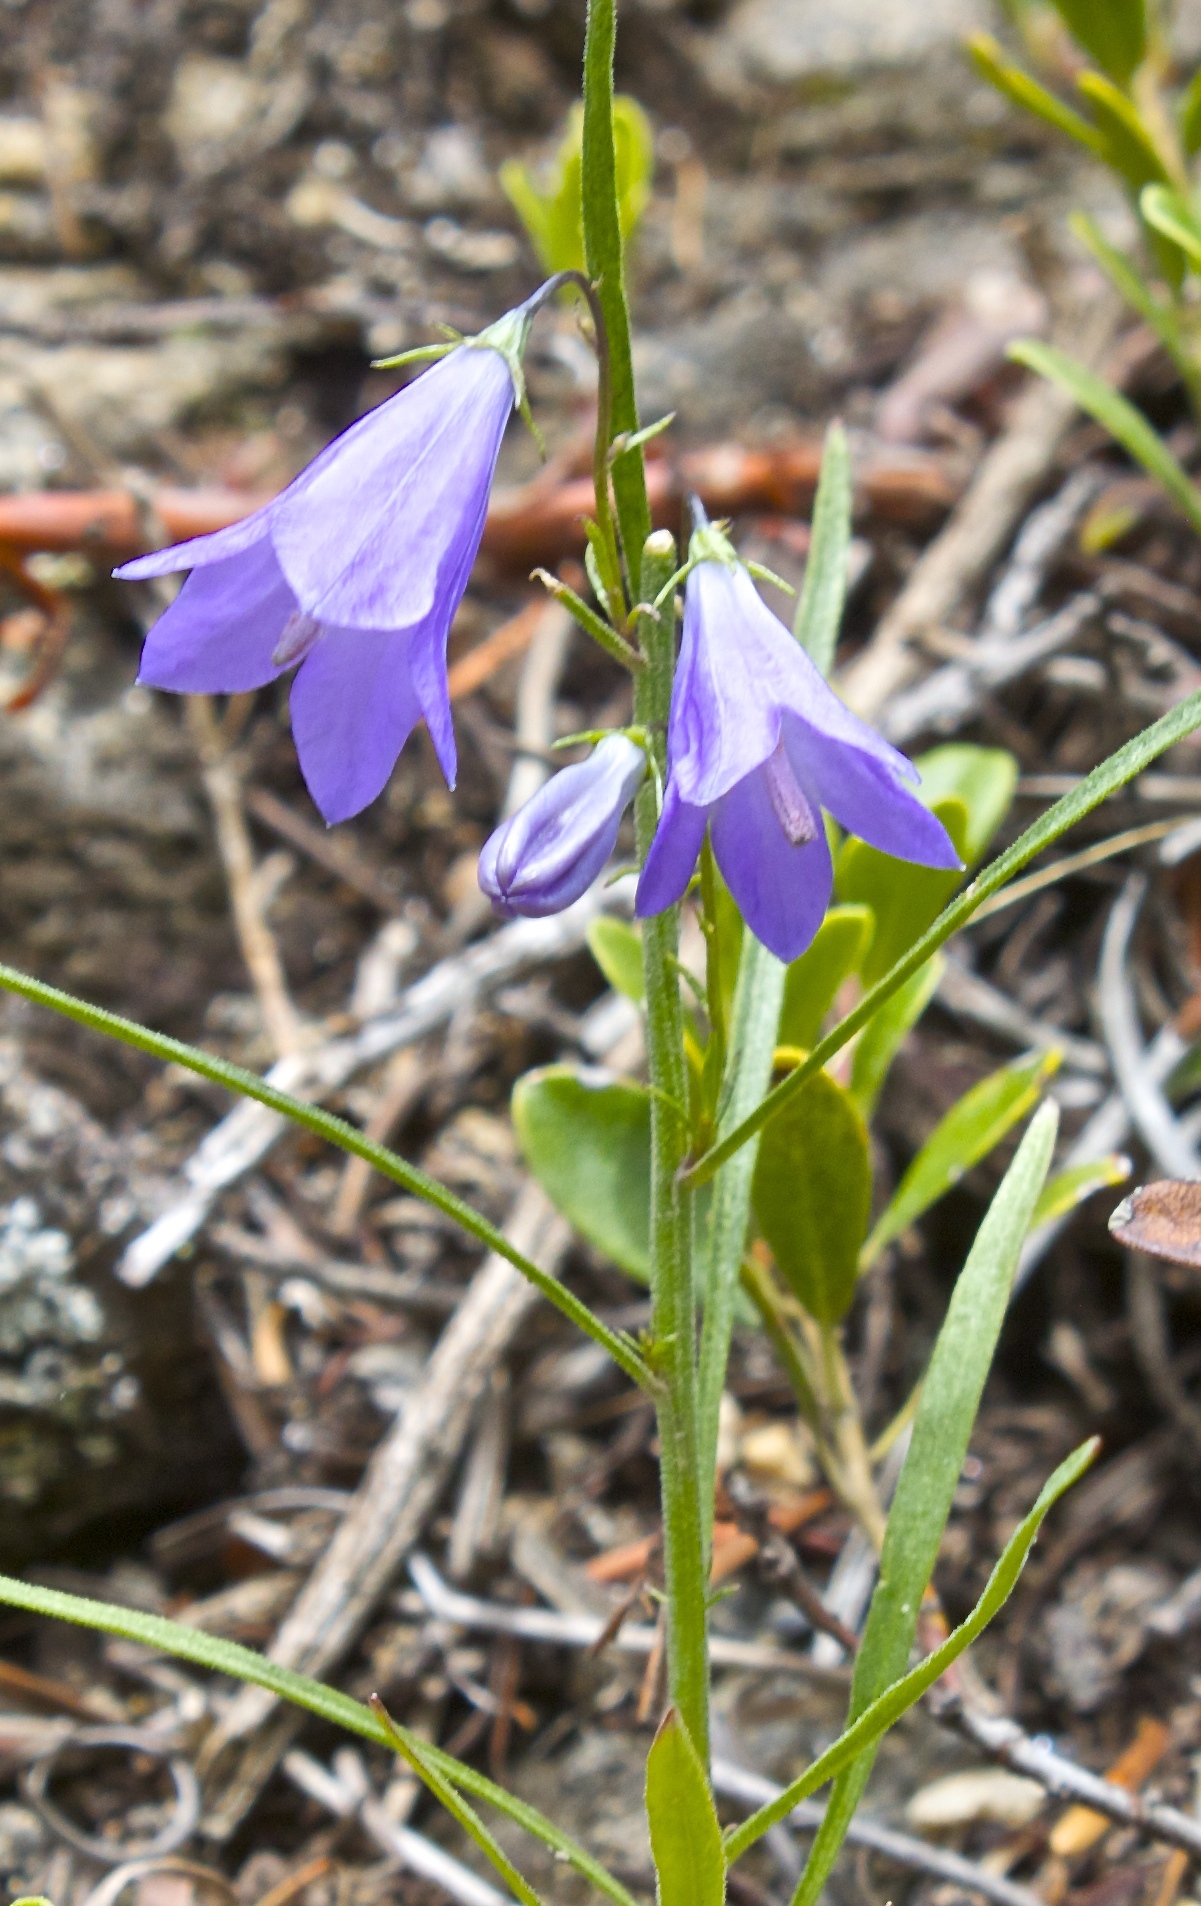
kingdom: Plantae
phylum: Tracheophyta
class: Magnoliopsida
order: Asterales
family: Campanulaceae
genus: Campanula
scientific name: Campanula petiolata
